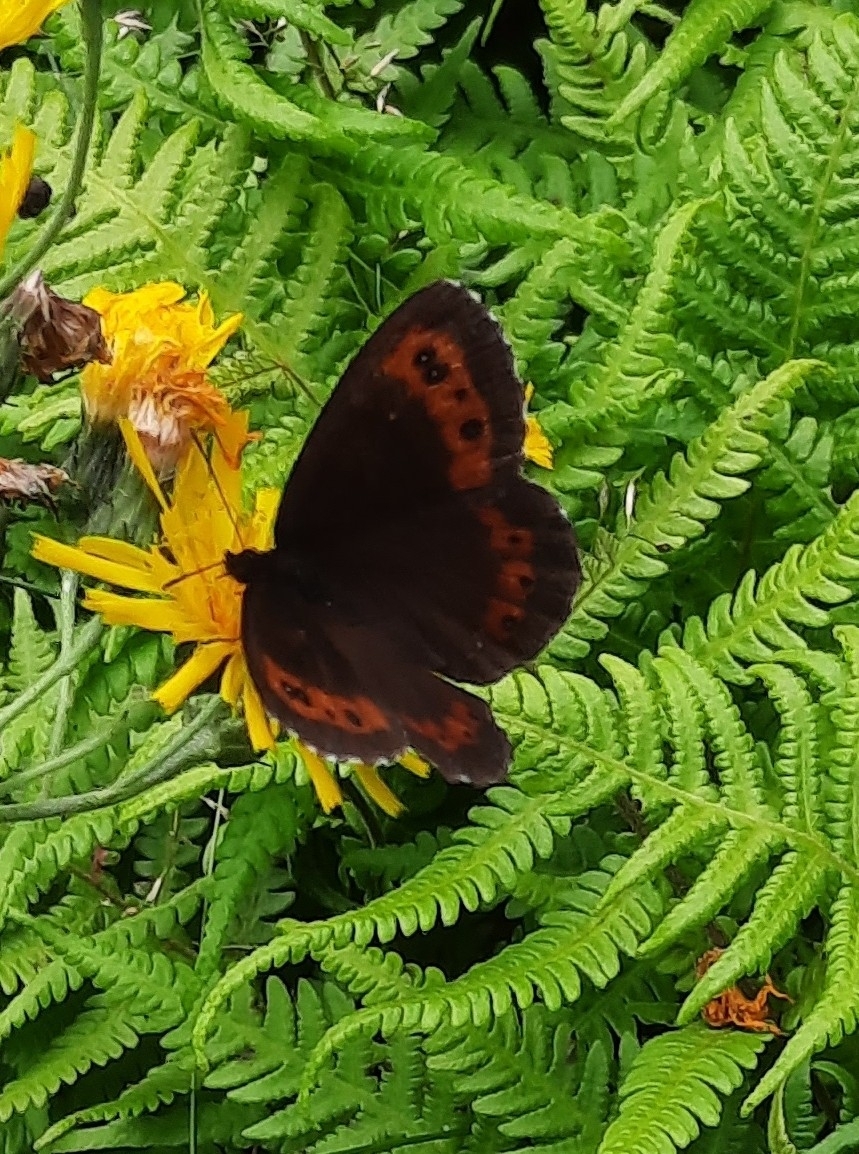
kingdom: Animalia
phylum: Arthropoda
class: Insecta
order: Lepidoptera
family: Nymphalidae
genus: Erebia
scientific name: Erebia ligea
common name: Arran brown
